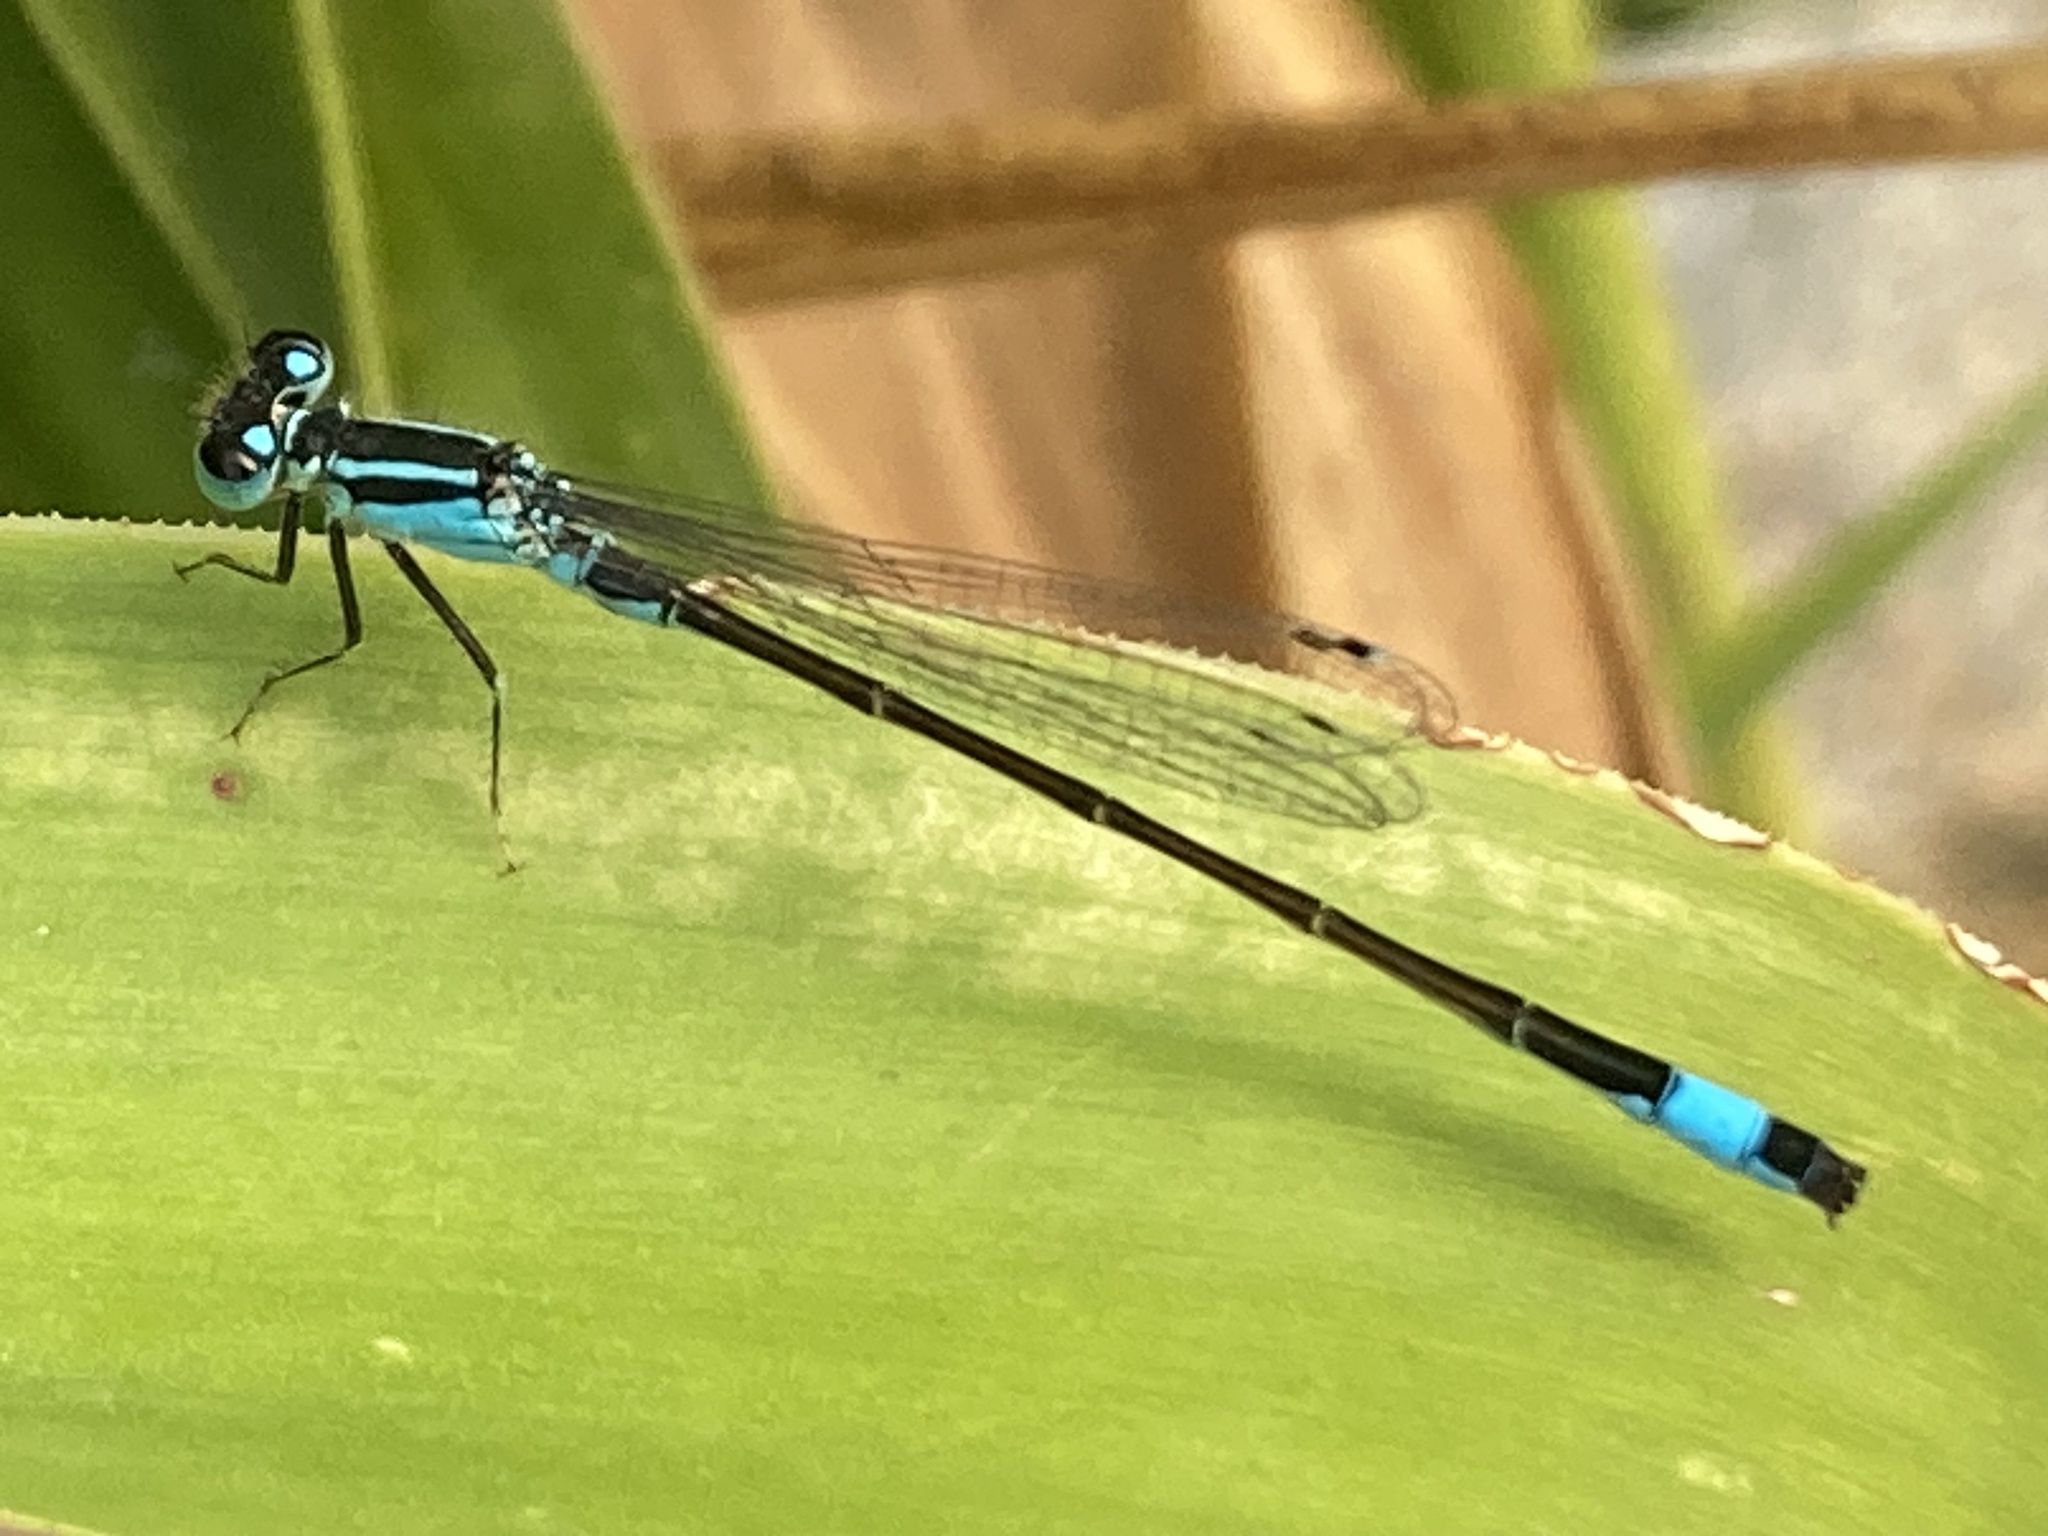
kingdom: Animalia
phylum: Arthropoda
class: Insecta
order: Odonata
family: Coenagrionidae
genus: Ischnura
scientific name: Ischnura elegans
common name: Blue-tailed damselfly
